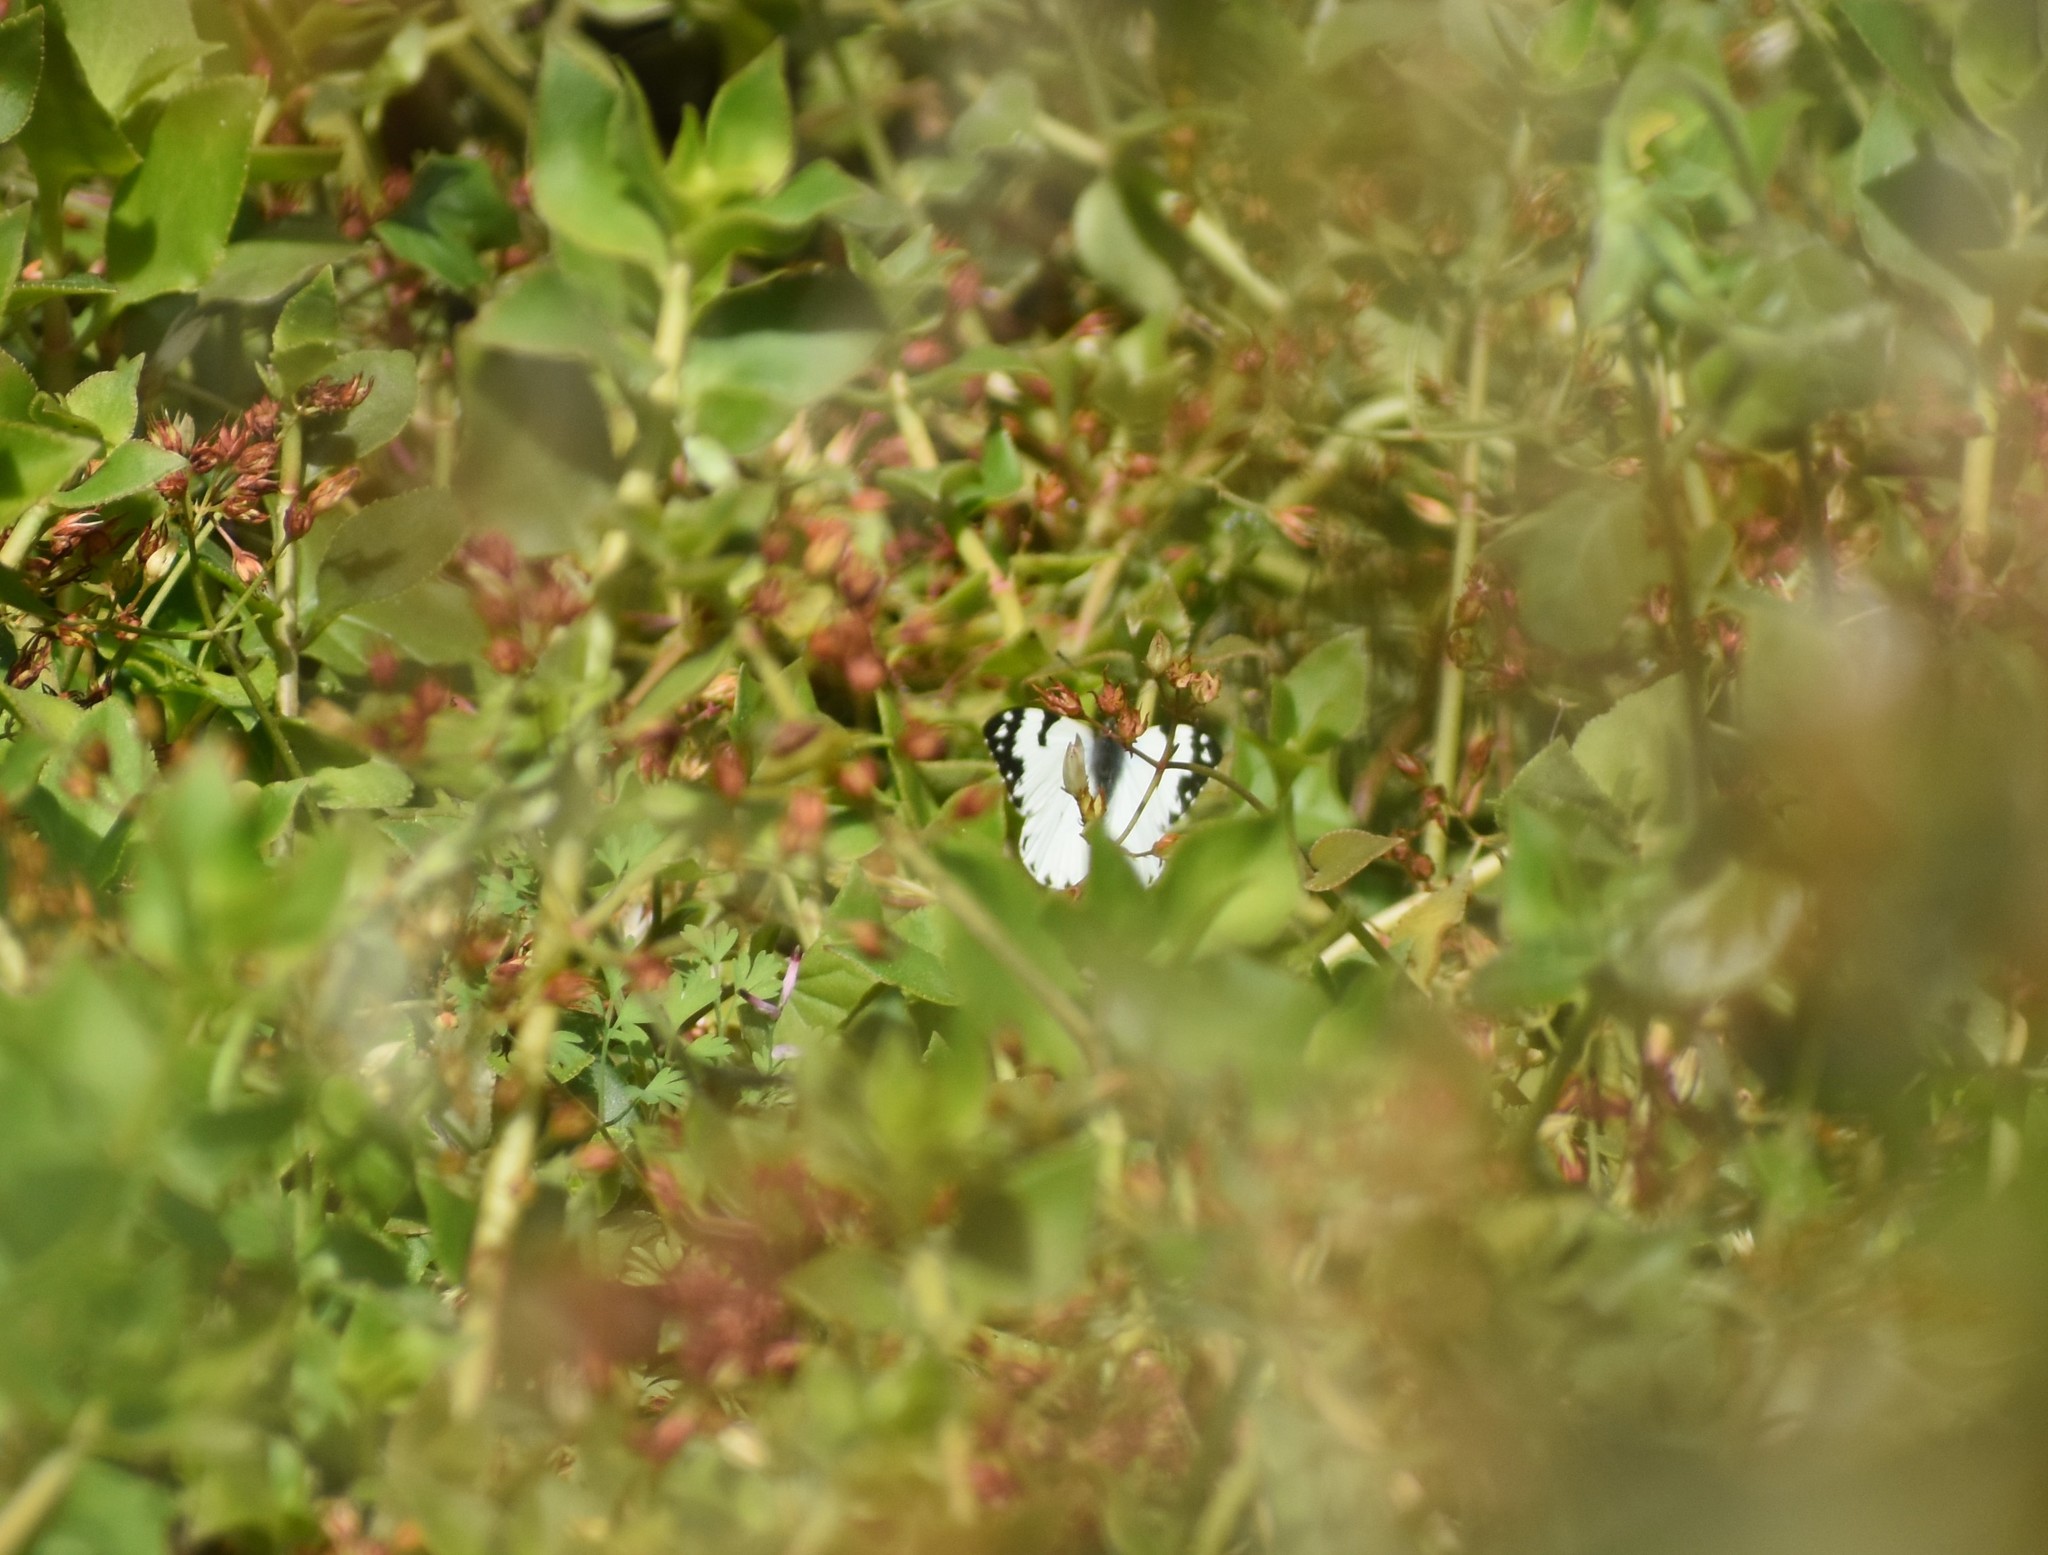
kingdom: Animalia
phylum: Arthropoda
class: Insecta
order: Lepidoptera
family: Pieridae
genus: Belenois
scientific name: Belenois zochalia
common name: Forest caper white
